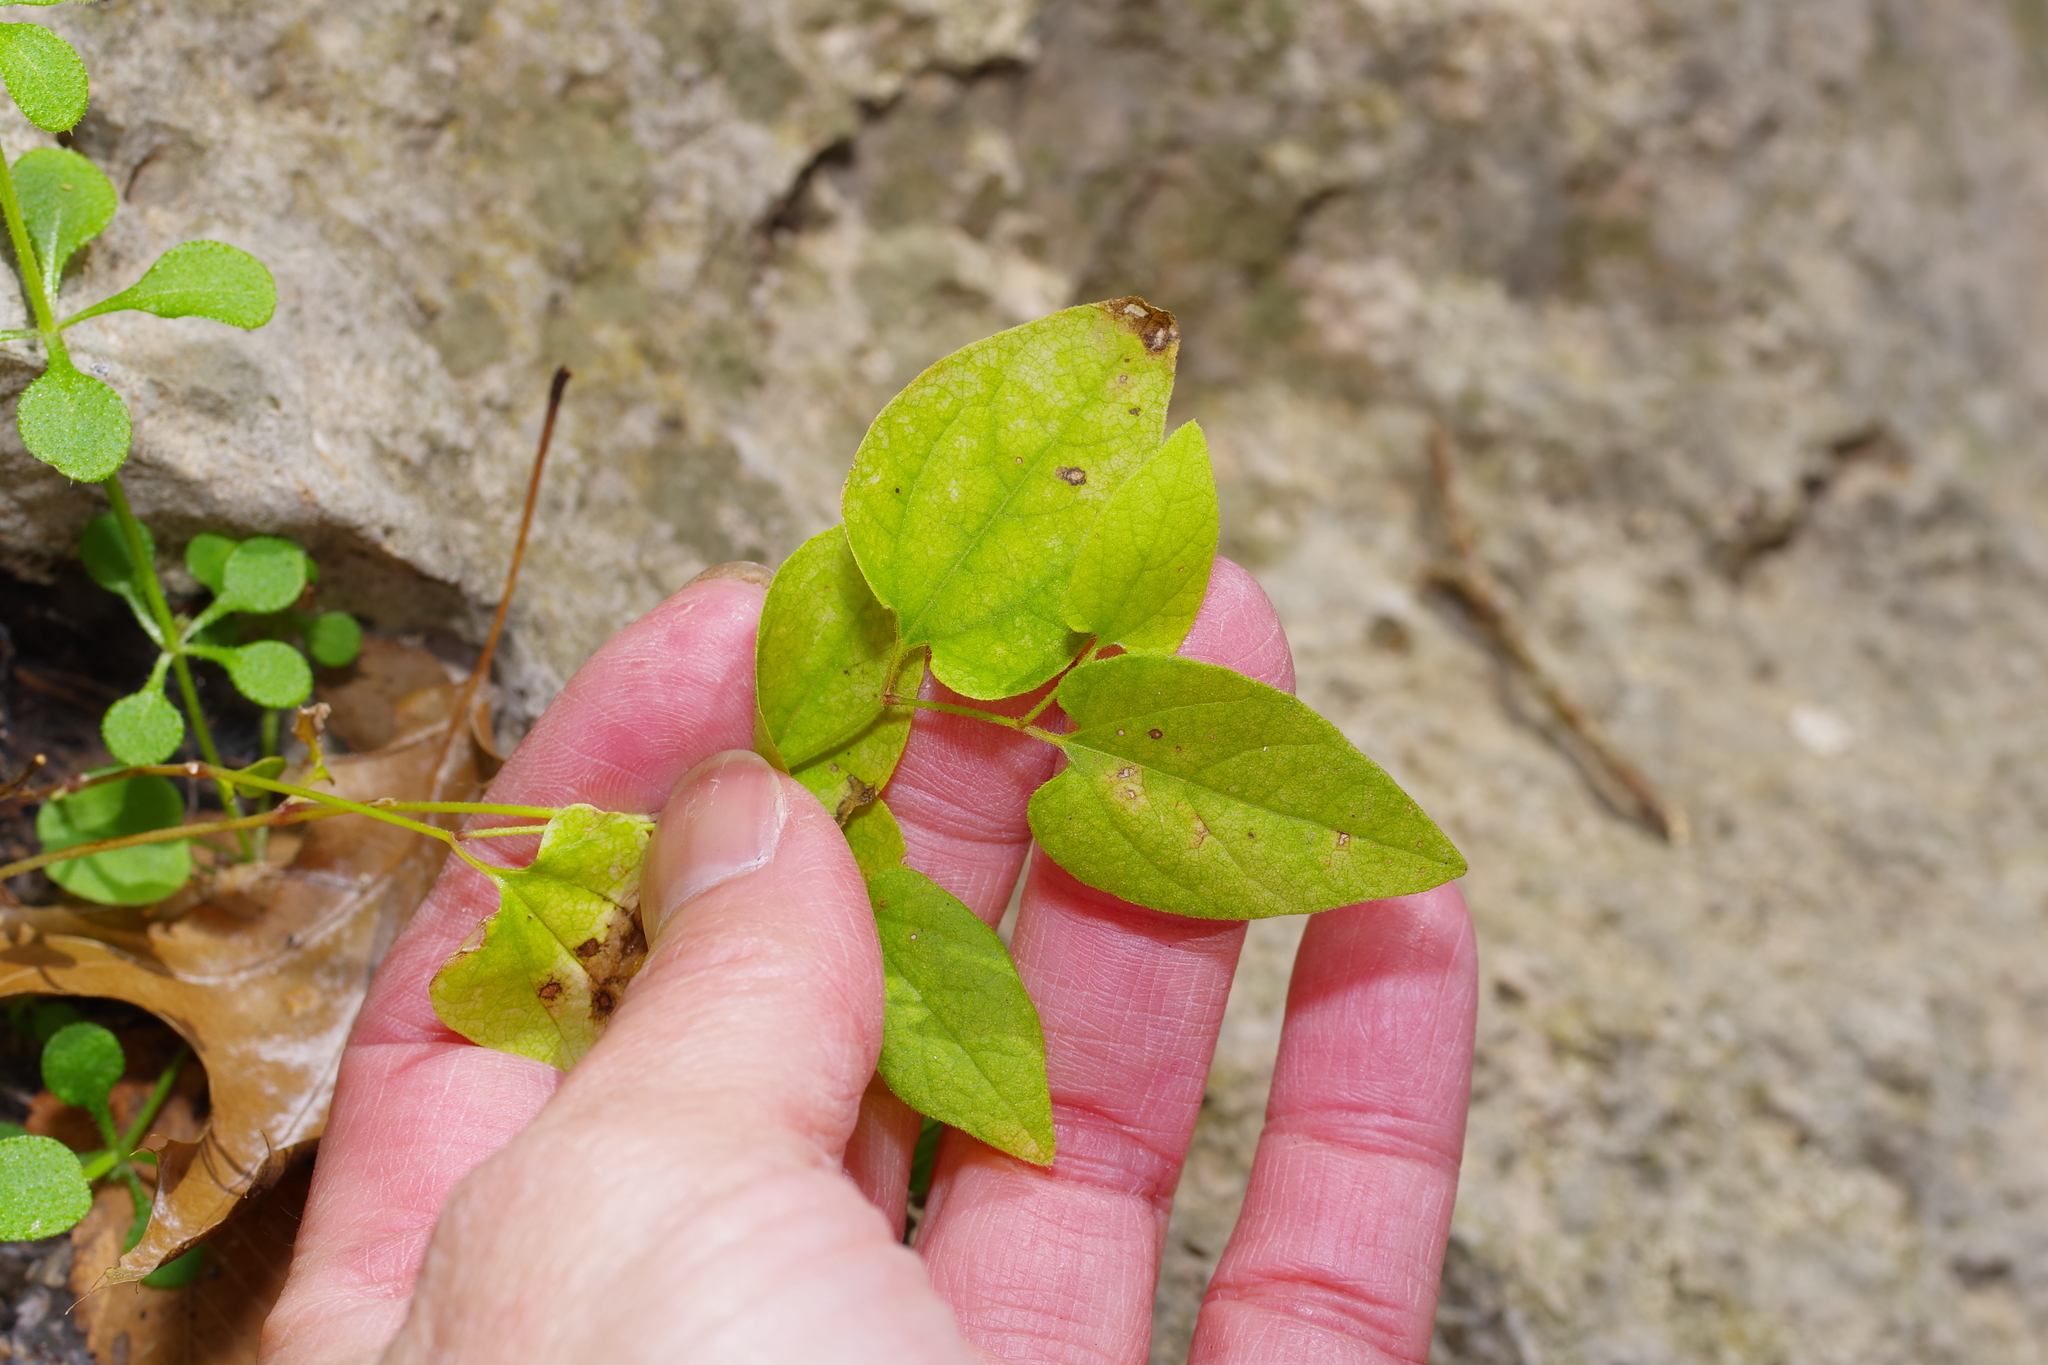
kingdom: Plantae
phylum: Tracheophyta
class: Magnoliopsida
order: Piperales
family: Aristolochiaceae
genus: Endodeca
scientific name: Endodeca serpentaria
